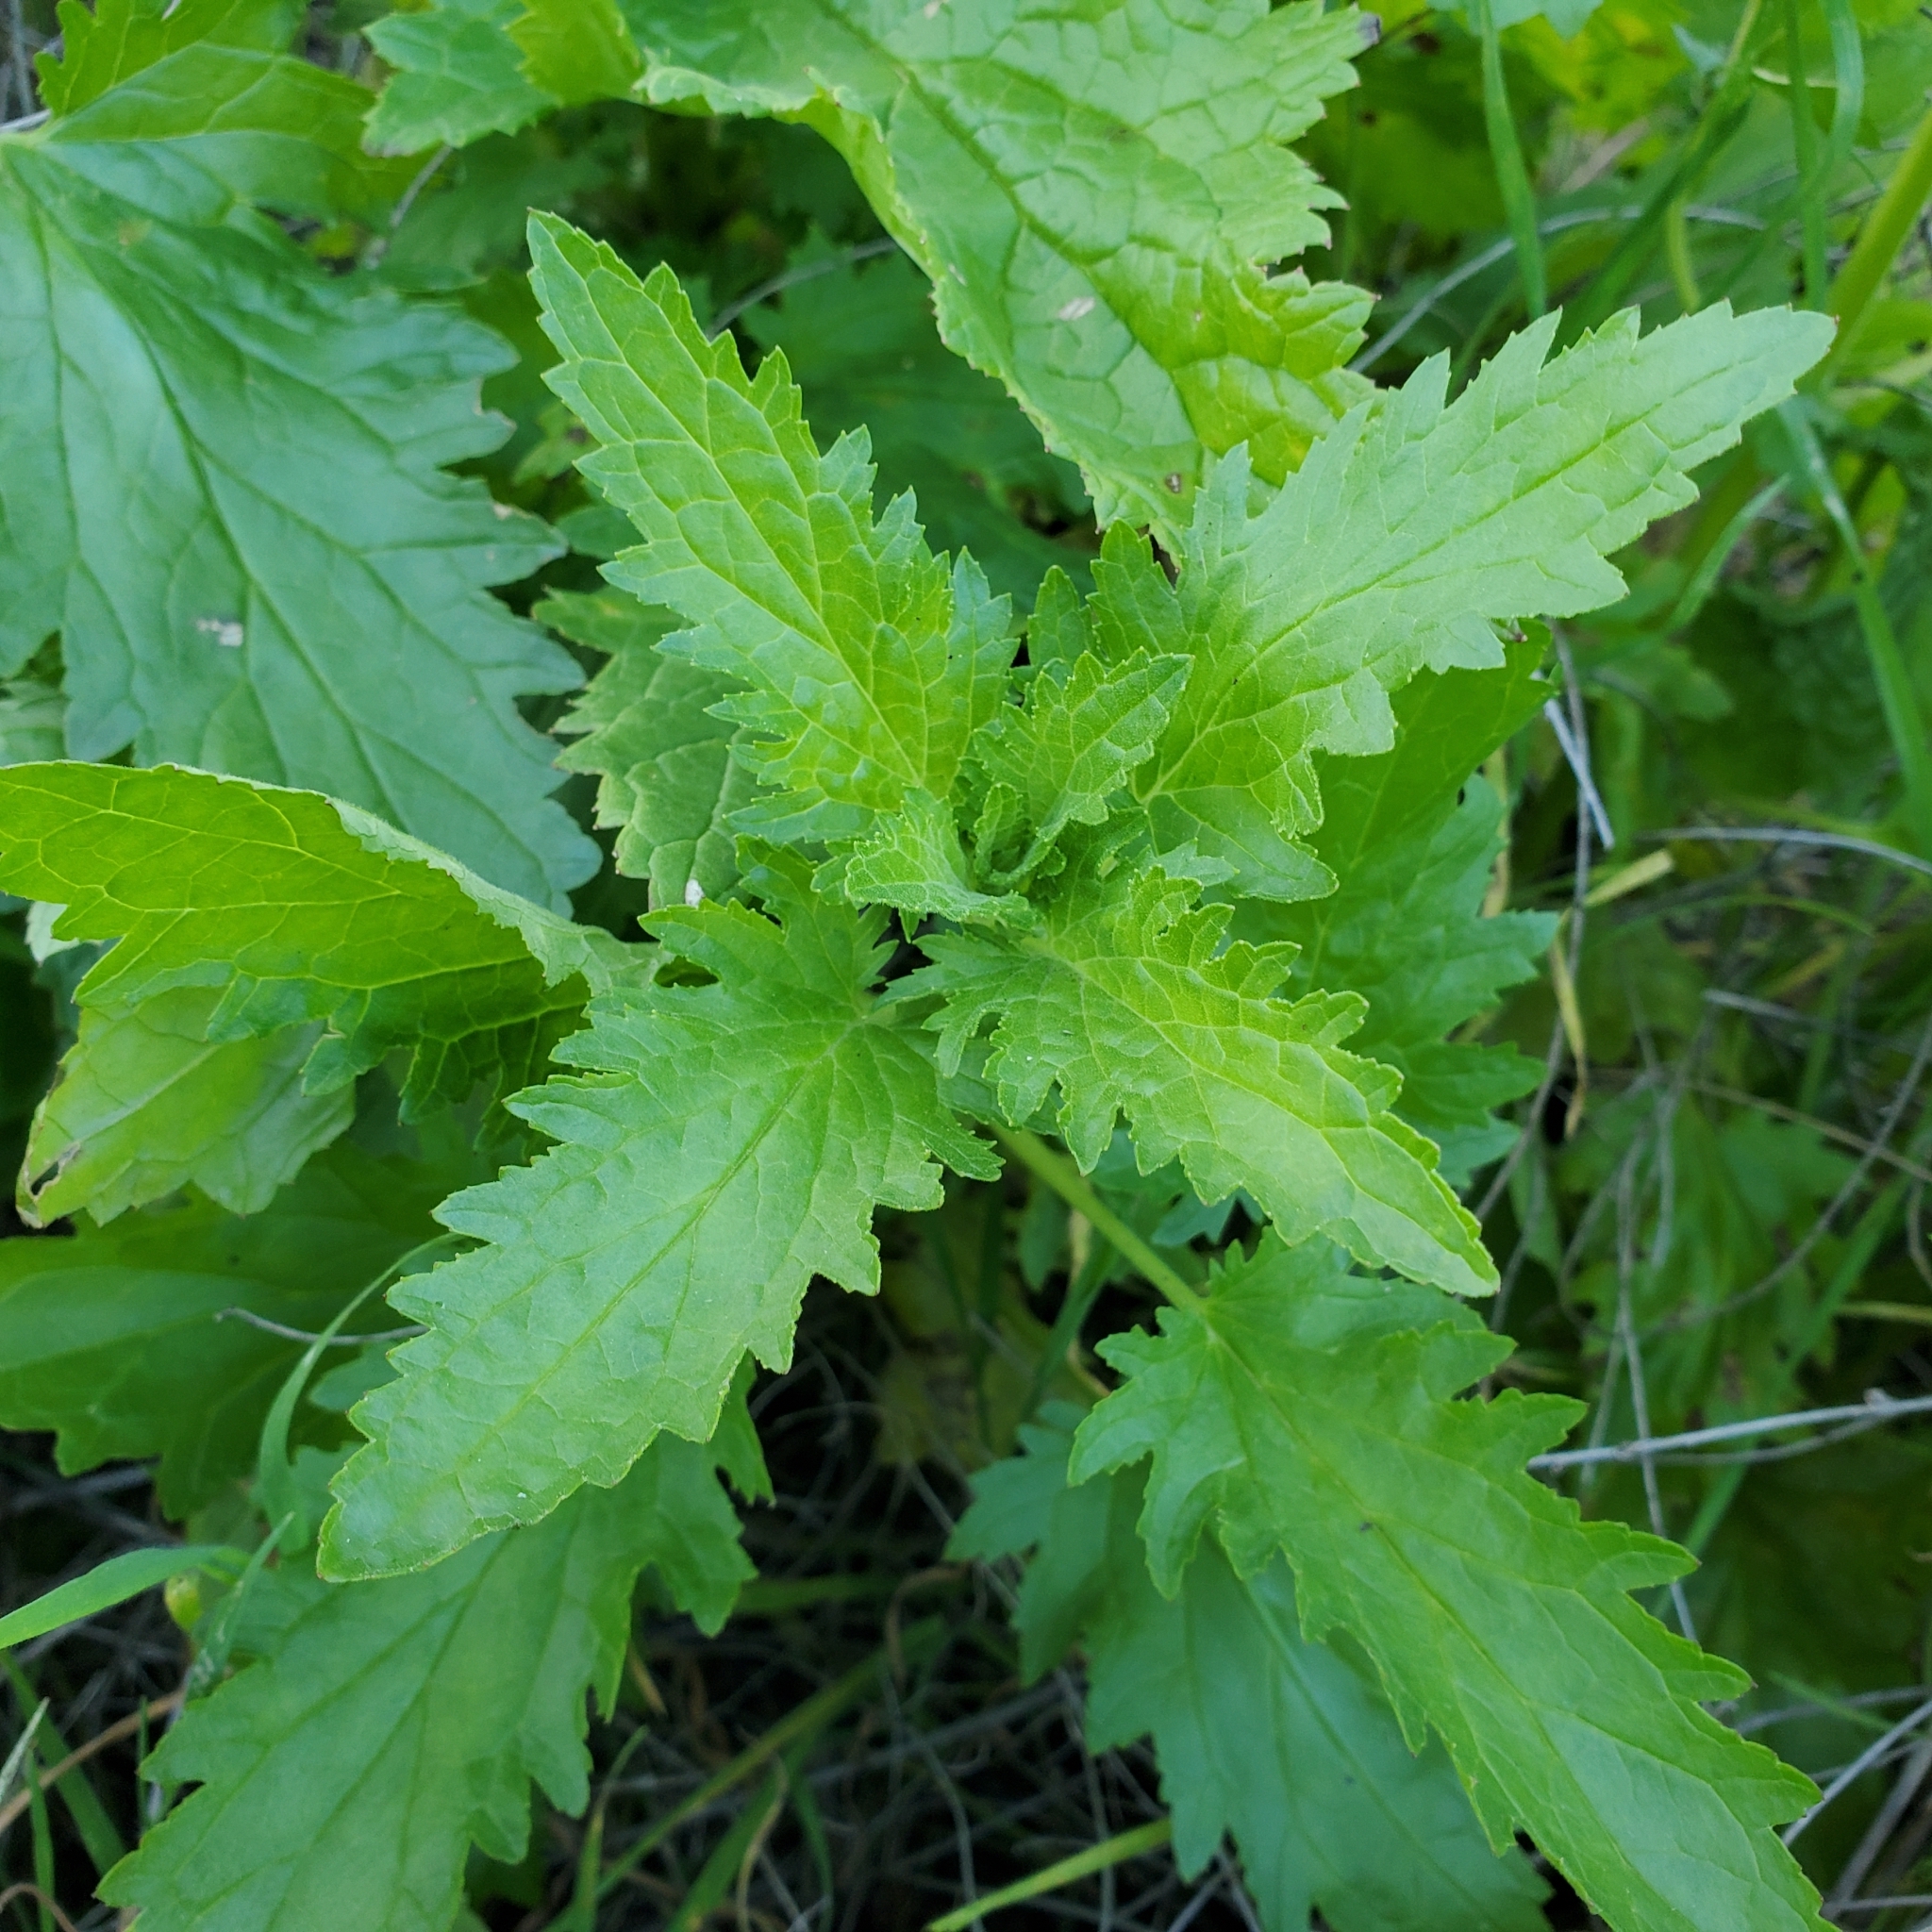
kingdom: Plantae
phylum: Tracheophyta
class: Magnoliopsida
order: Lamiales
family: Scrophulariaceae
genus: Scrophularia
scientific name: Scrophularia californica
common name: California figwort
